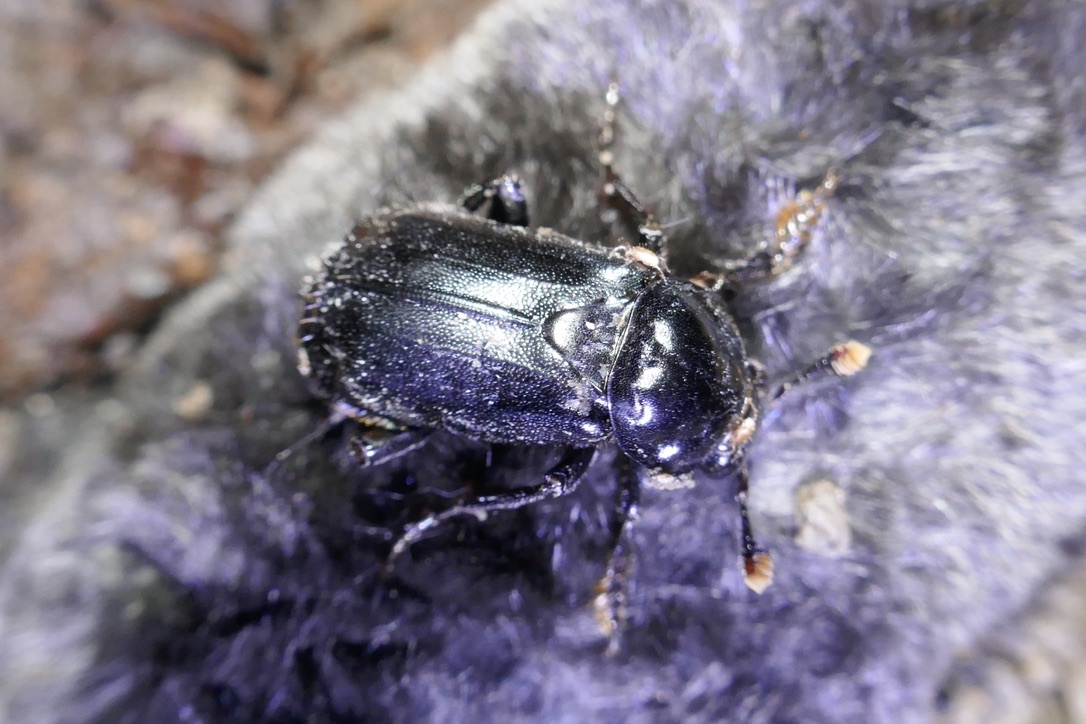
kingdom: Animalia
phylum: Arthropoda
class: Insecta
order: Coleoptera
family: Staphylinidae
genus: Nicrophorus
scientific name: Nicrophorus humator
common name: Black sexton beetle
